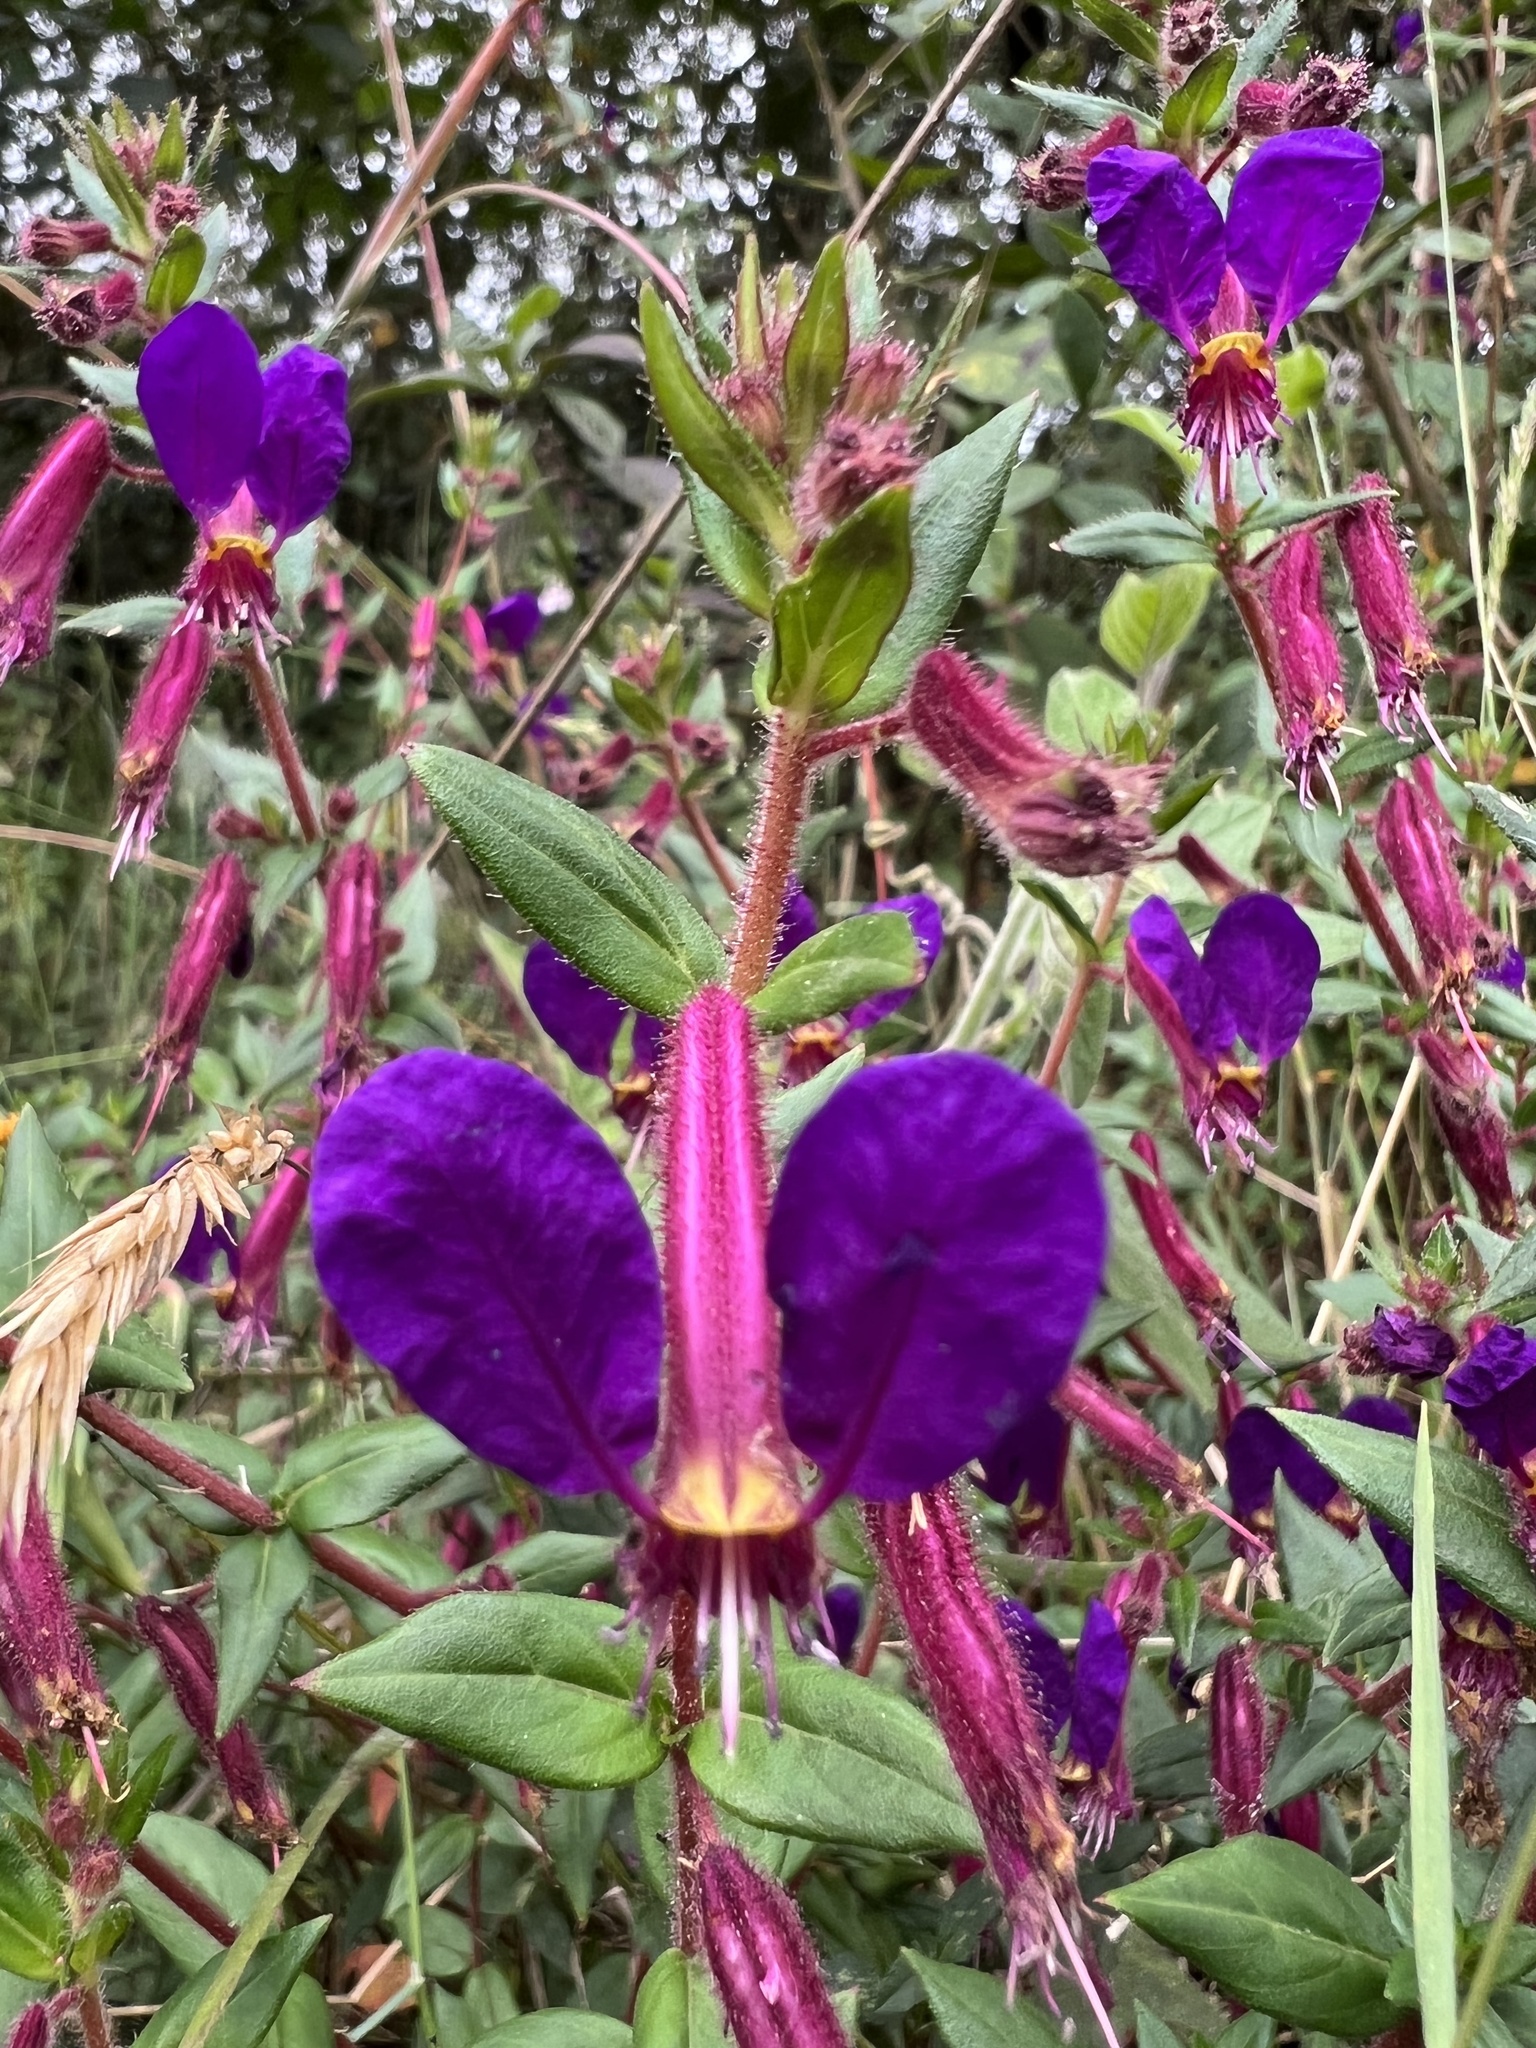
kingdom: Plantae
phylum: Tracheophyta
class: Magnoliopsida
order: Myrtales
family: Lythraceae
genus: Cuphea
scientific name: Cuphea dipetala
